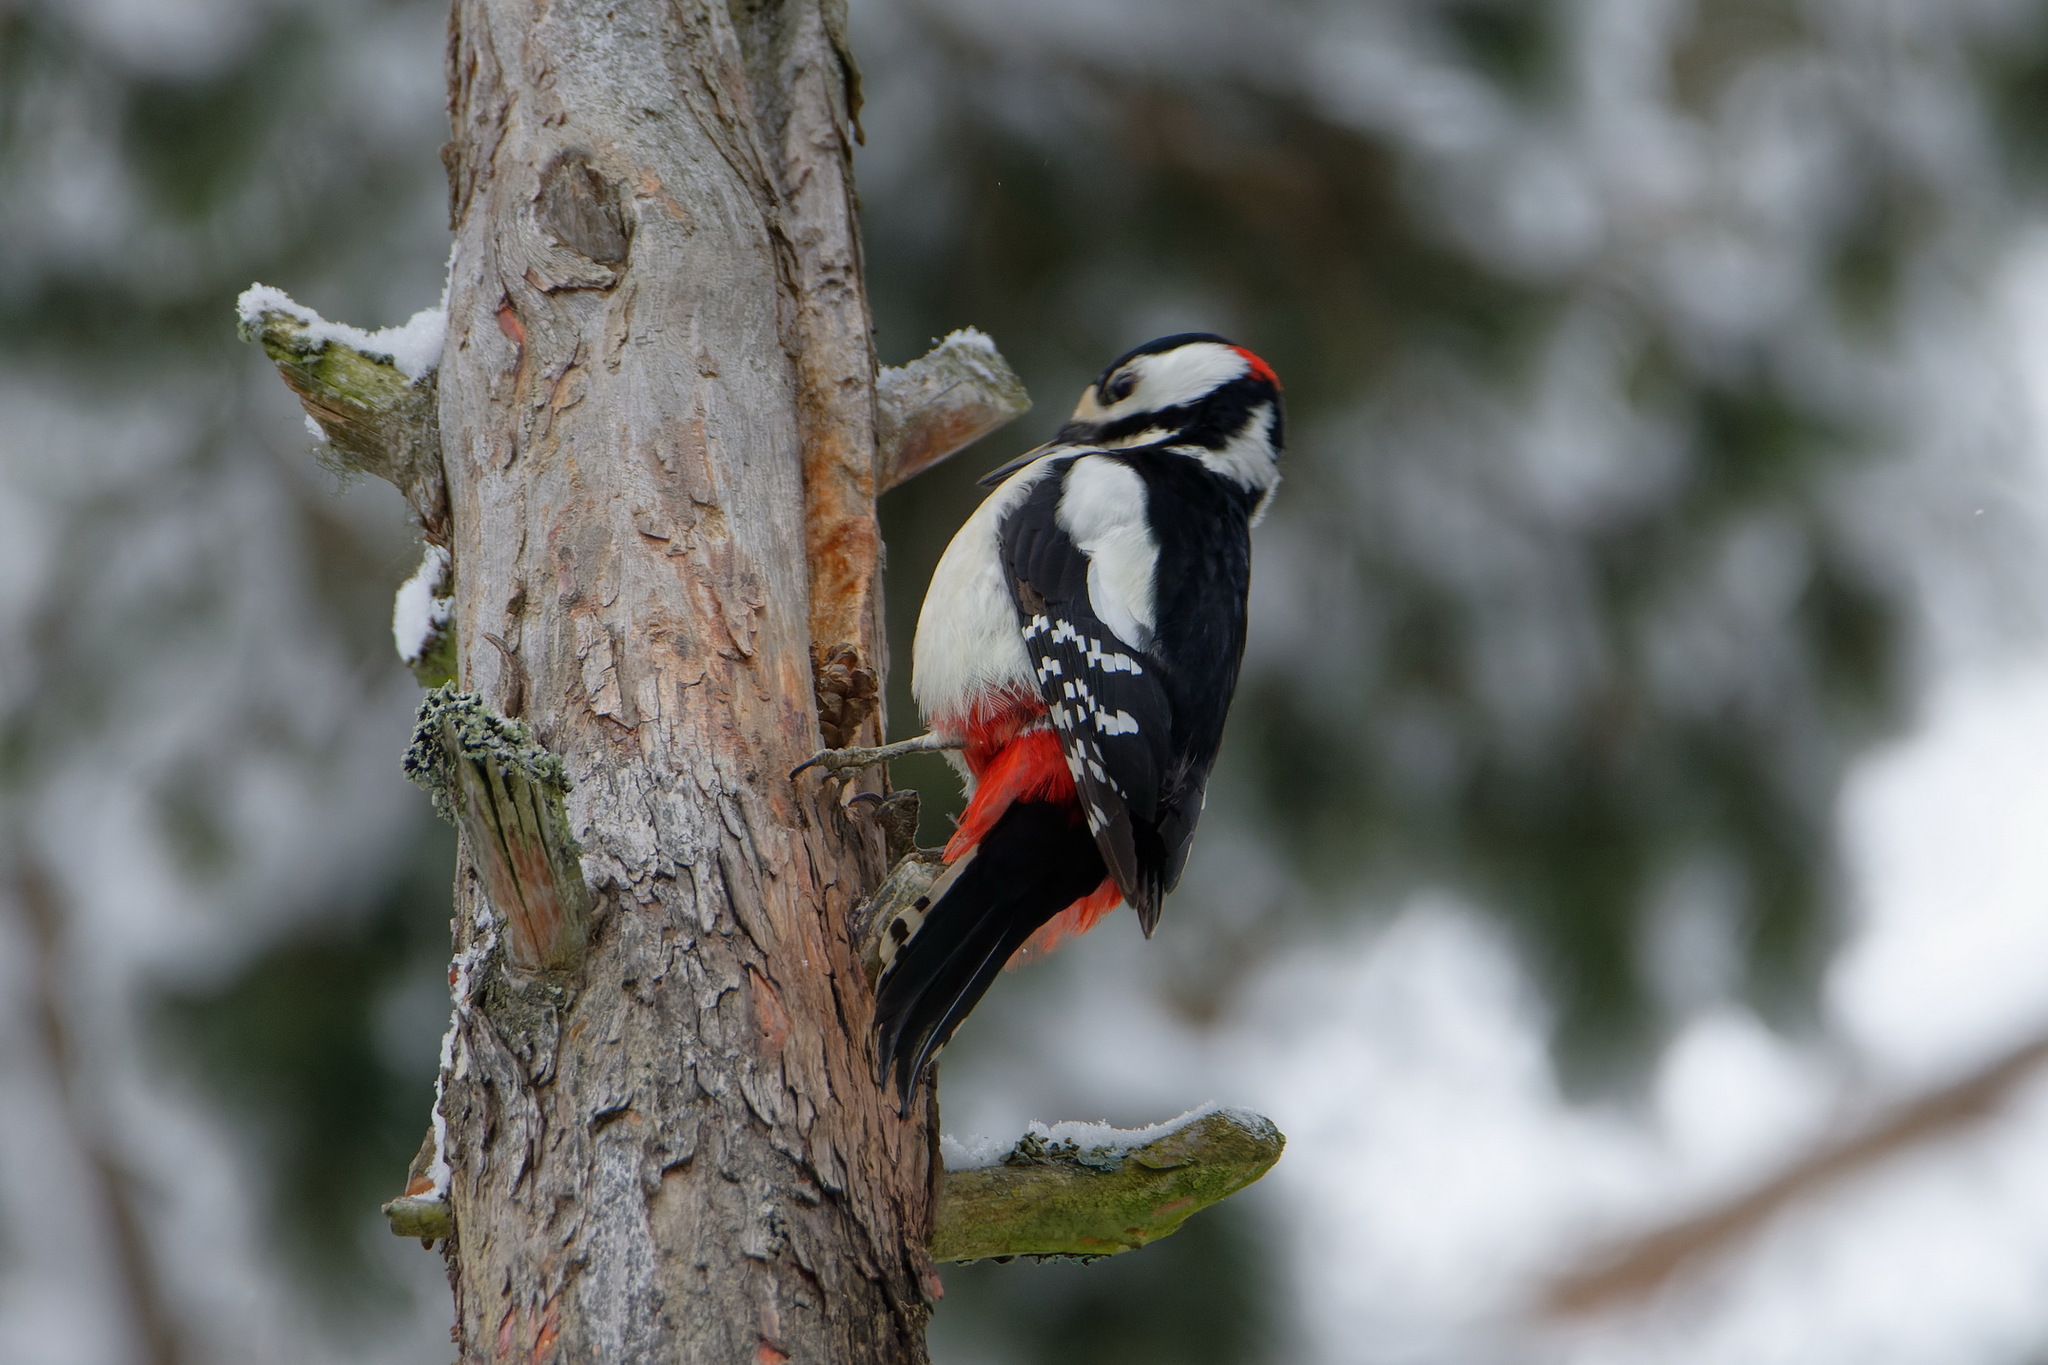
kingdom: Animalia
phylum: Chordata
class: Aves
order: Piciformes
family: Picidae
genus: Dendrocopos
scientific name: Dendrocopos major
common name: Great spotted woodpecker
